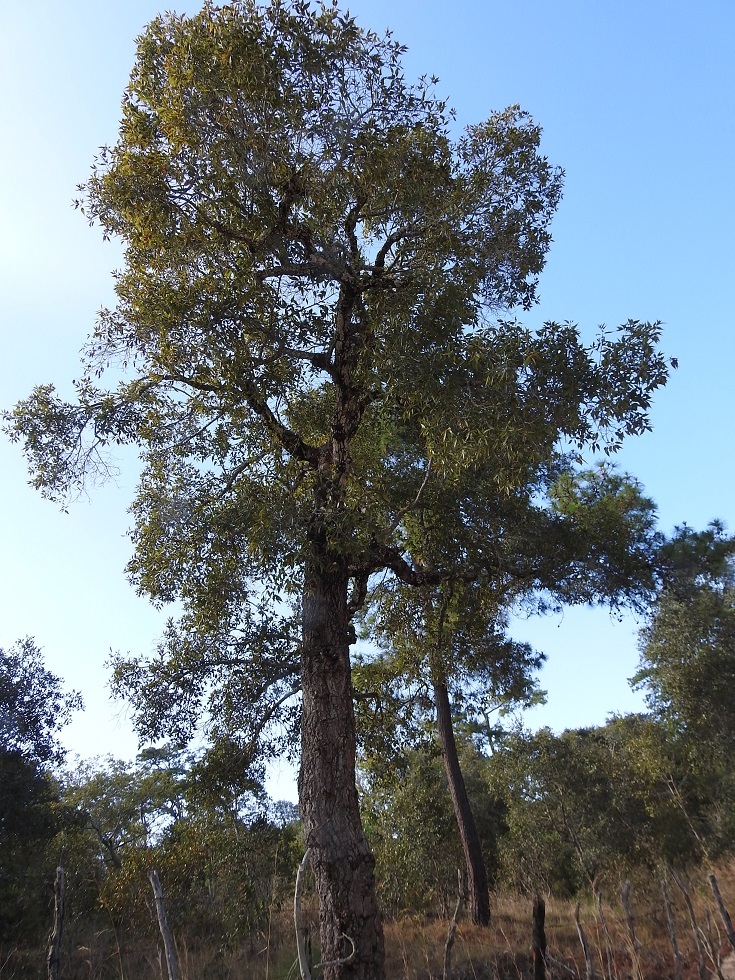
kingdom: Plantae
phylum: Tracheophyta
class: Magnoliopsida
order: Fagales
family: Fagaceae
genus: Quercus
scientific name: Quercus acutifolia
